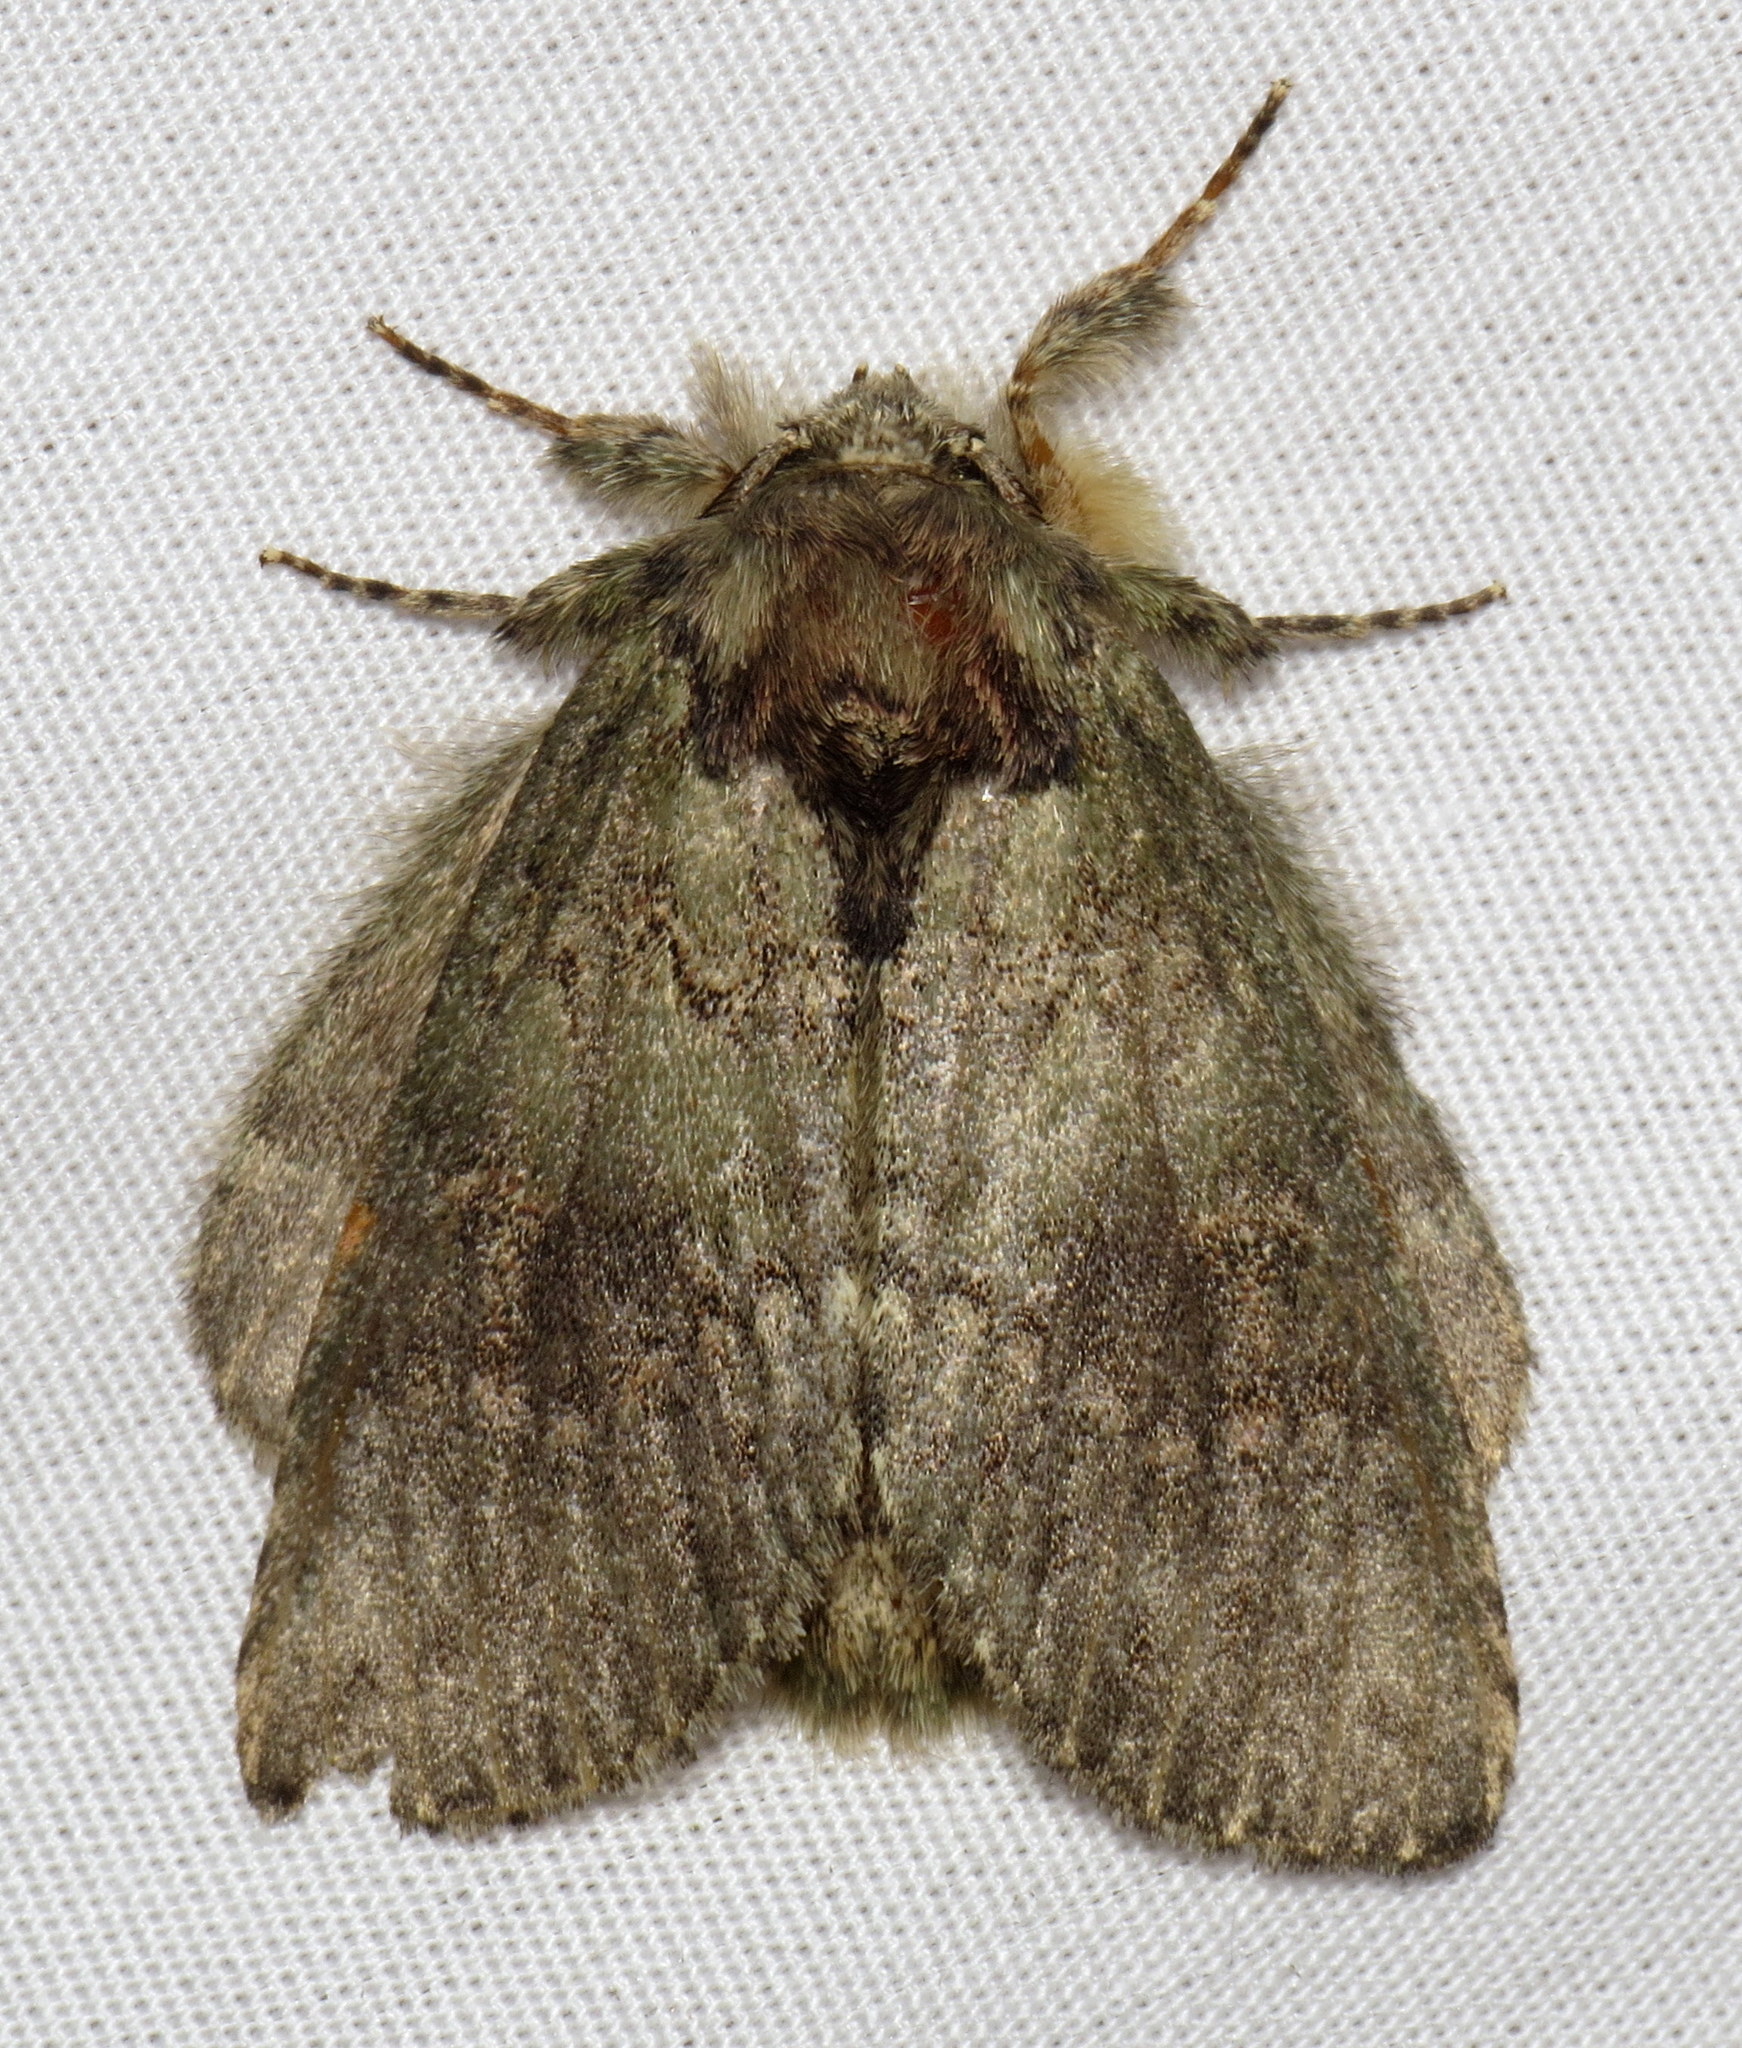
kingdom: Animalia
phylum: Arthropoda
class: Insecta
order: Lepidoptera
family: Notodontidae
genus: Disphragis
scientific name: Disphragis Cecrita biundata
